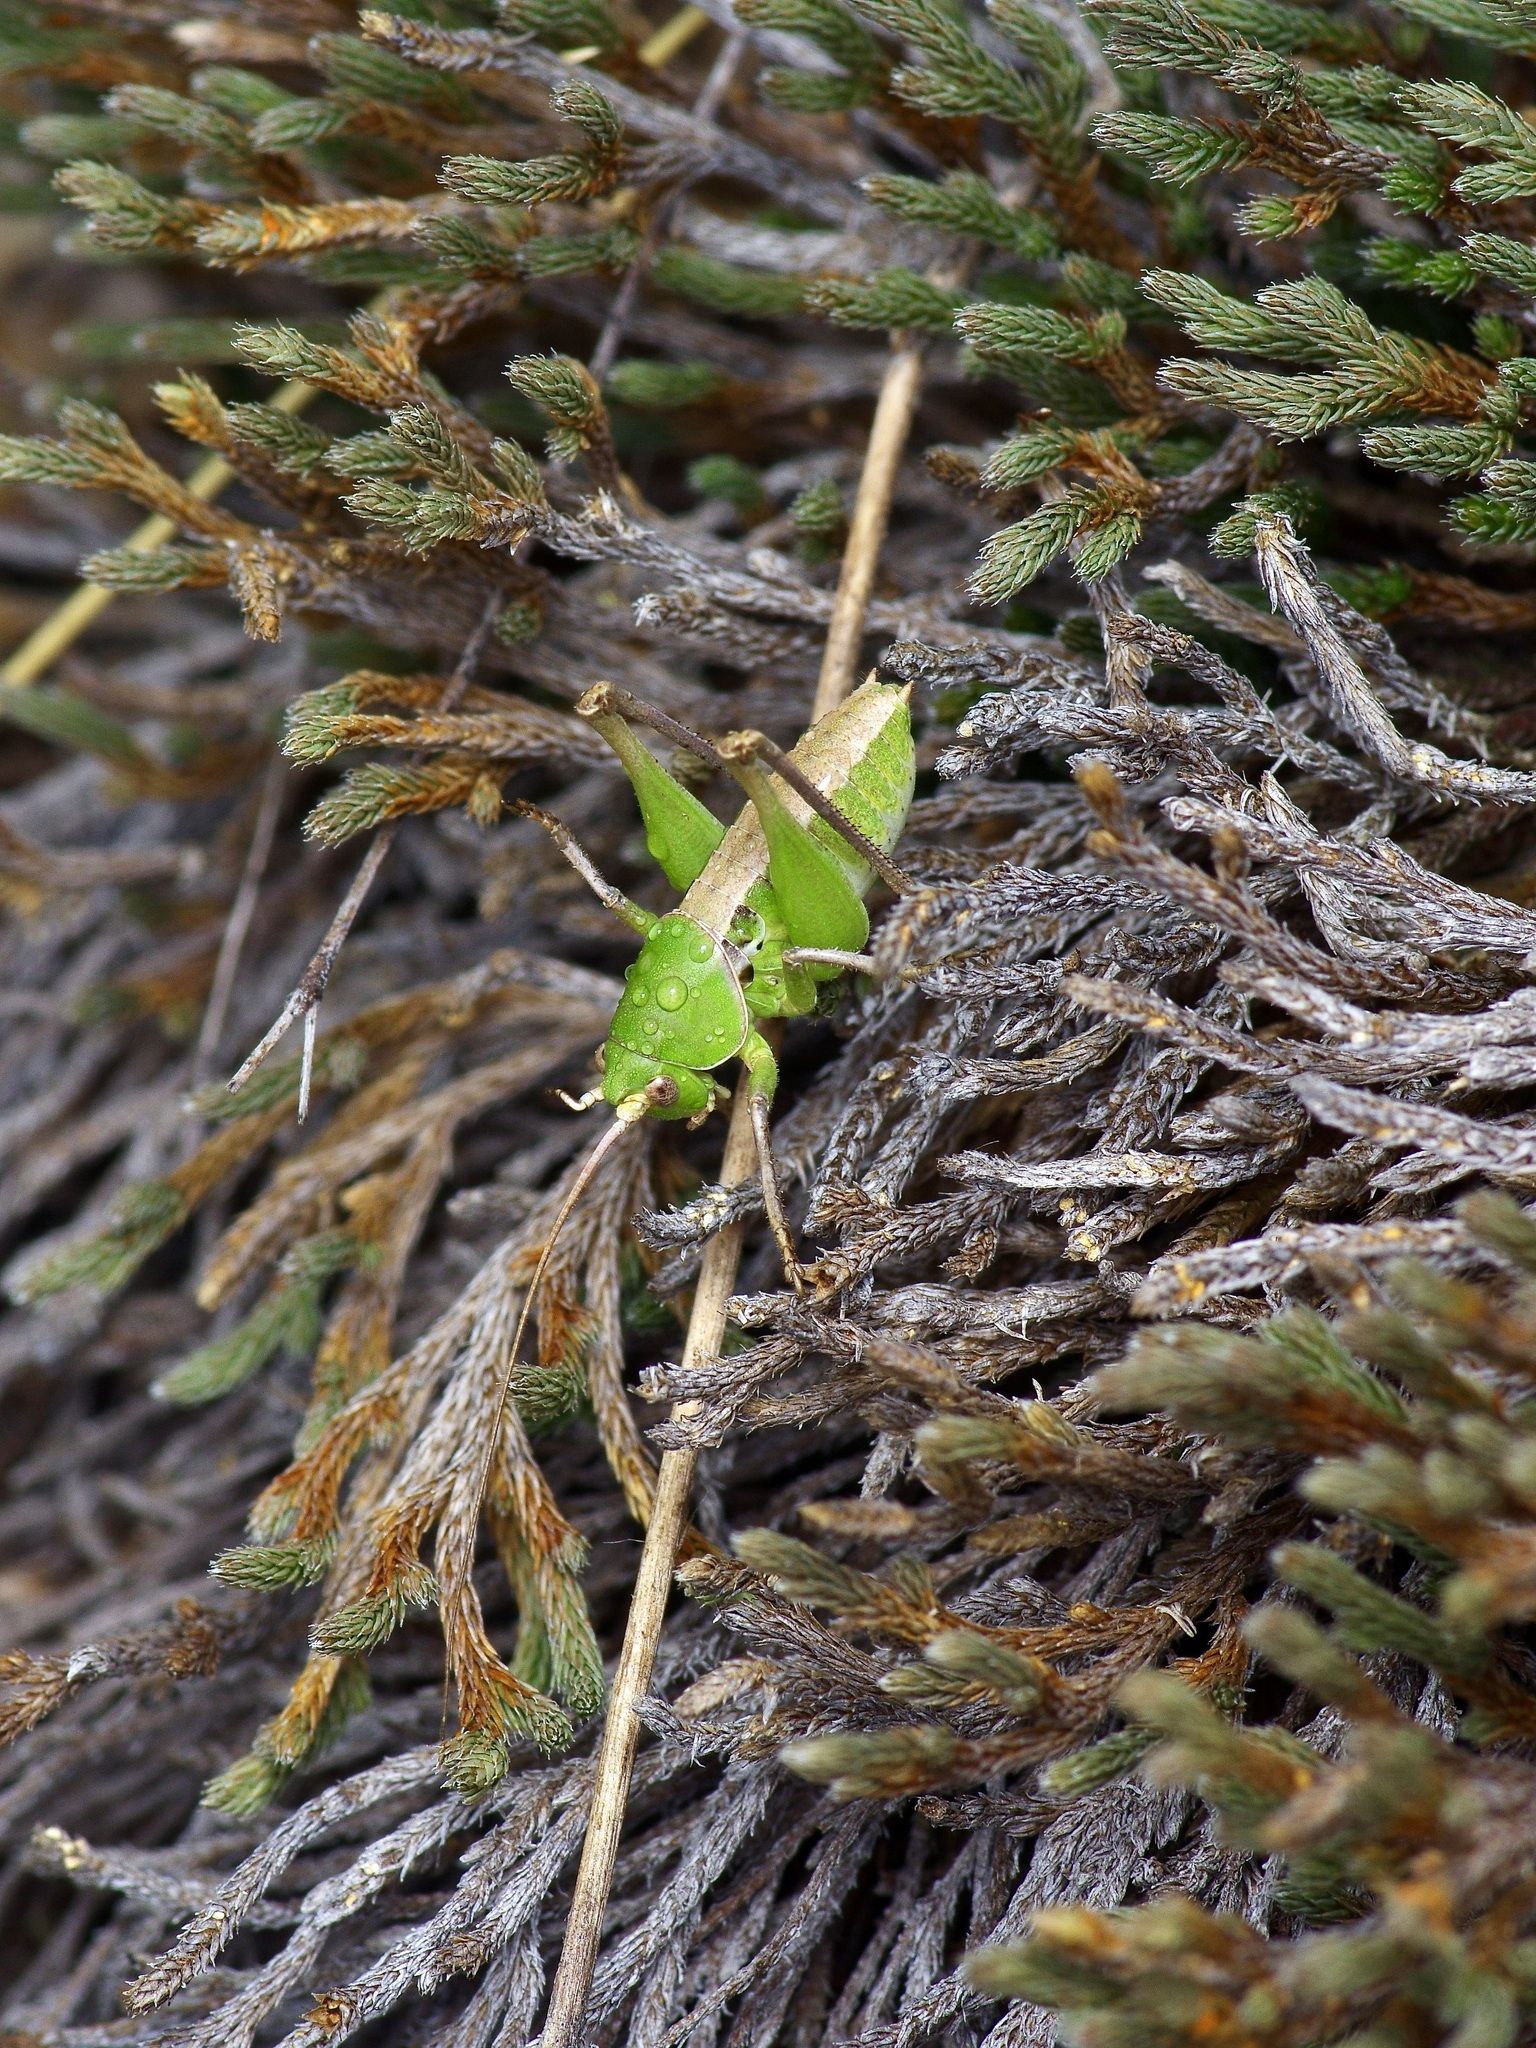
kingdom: Animalia
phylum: Arthropoda
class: Insecta
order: Orthoptera
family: Tettigoniidae
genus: Pediodectes
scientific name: Pediodectes haldemanii
